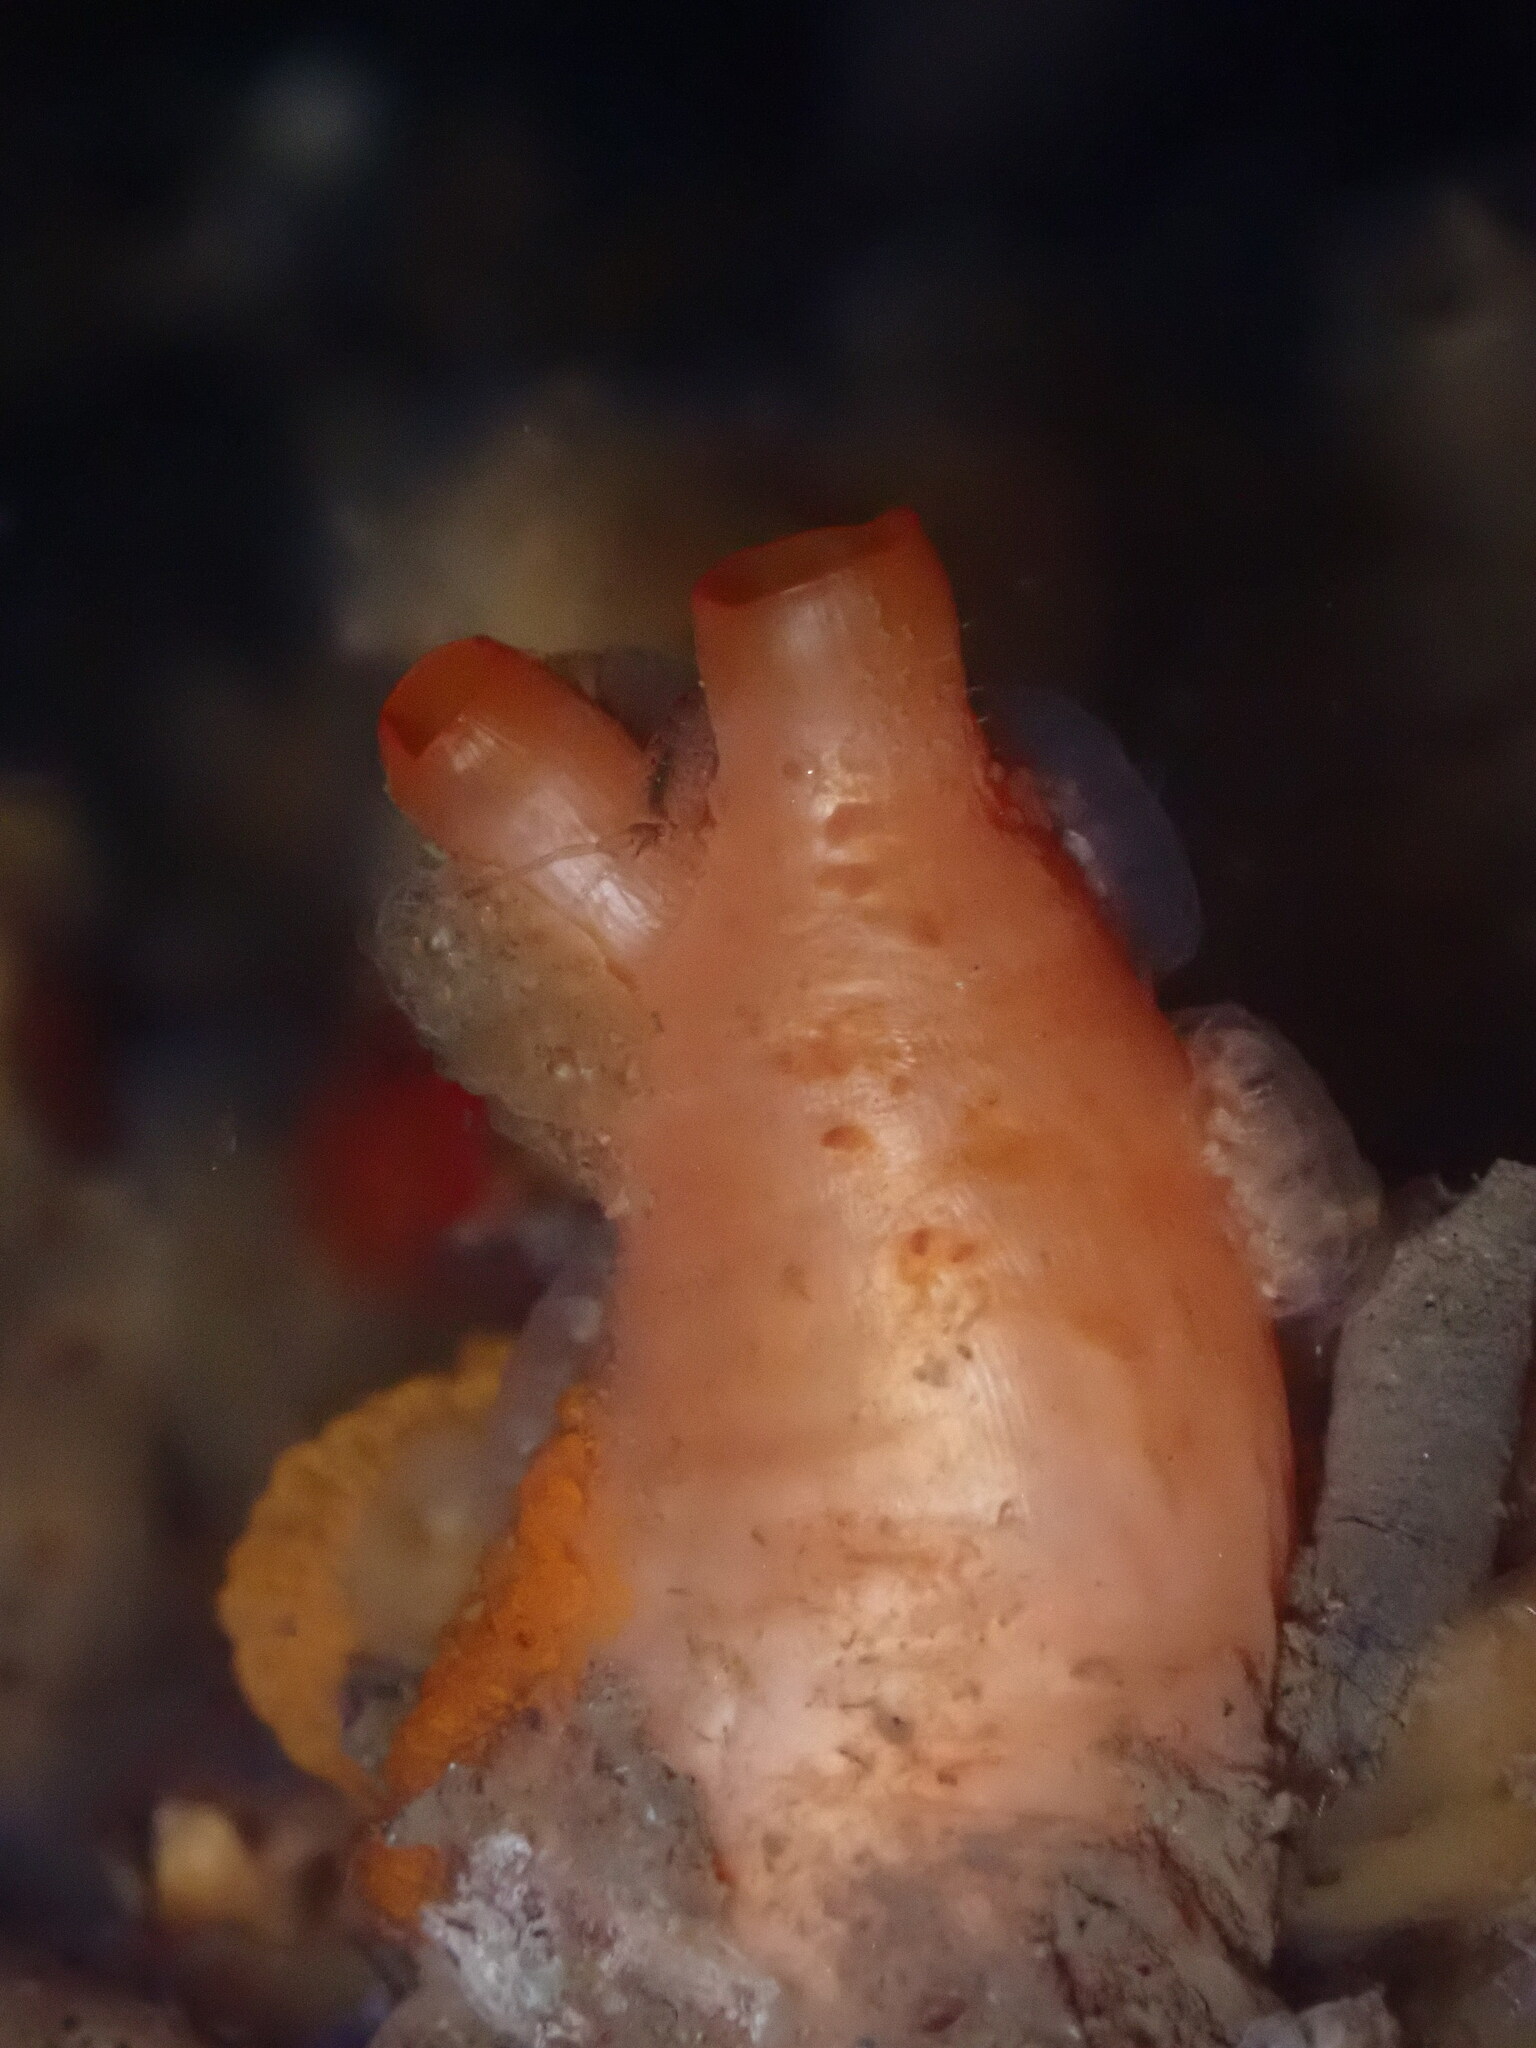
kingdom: Animalia
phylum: Chordata
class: Ascidiacea
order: Stolidobranchia
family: Styelidae
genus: Styela
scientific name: Styela gibbsii
